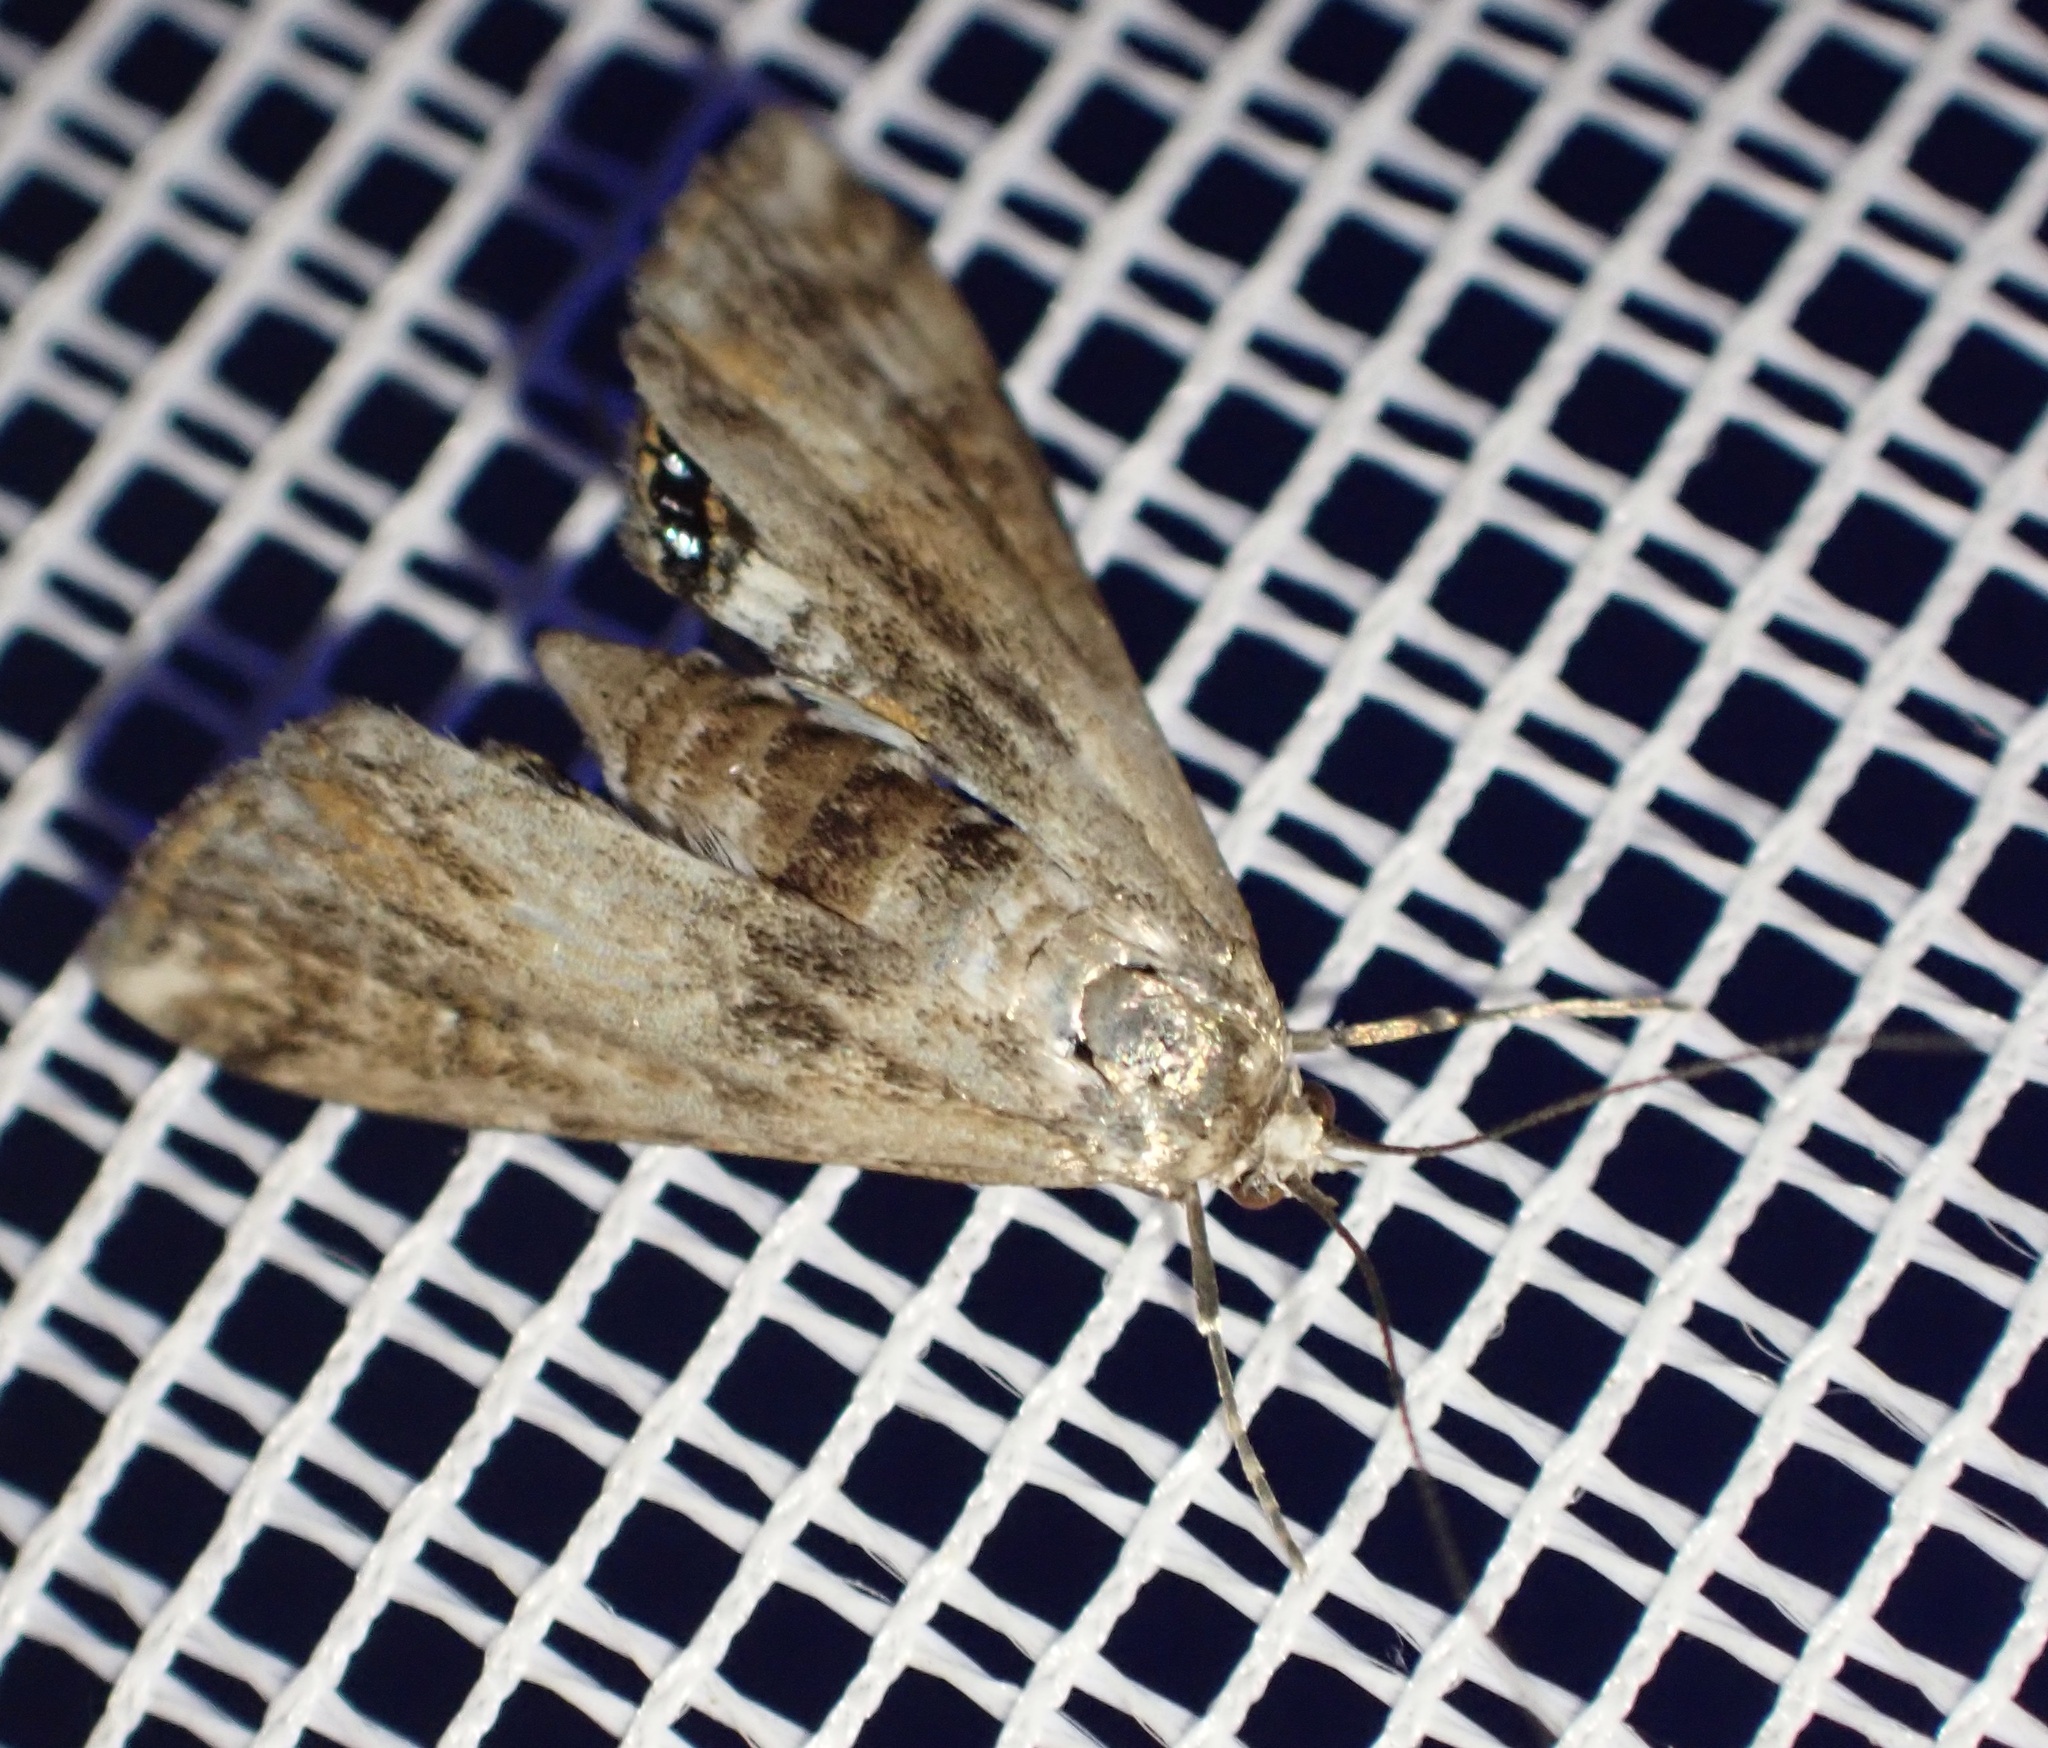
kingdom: Animalia
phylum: Arthropoda
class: Insecta
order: Lepidoptera
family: Crambidae
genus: Cataclysta
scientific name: Cataclysta lemnata
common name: Small china-mark
